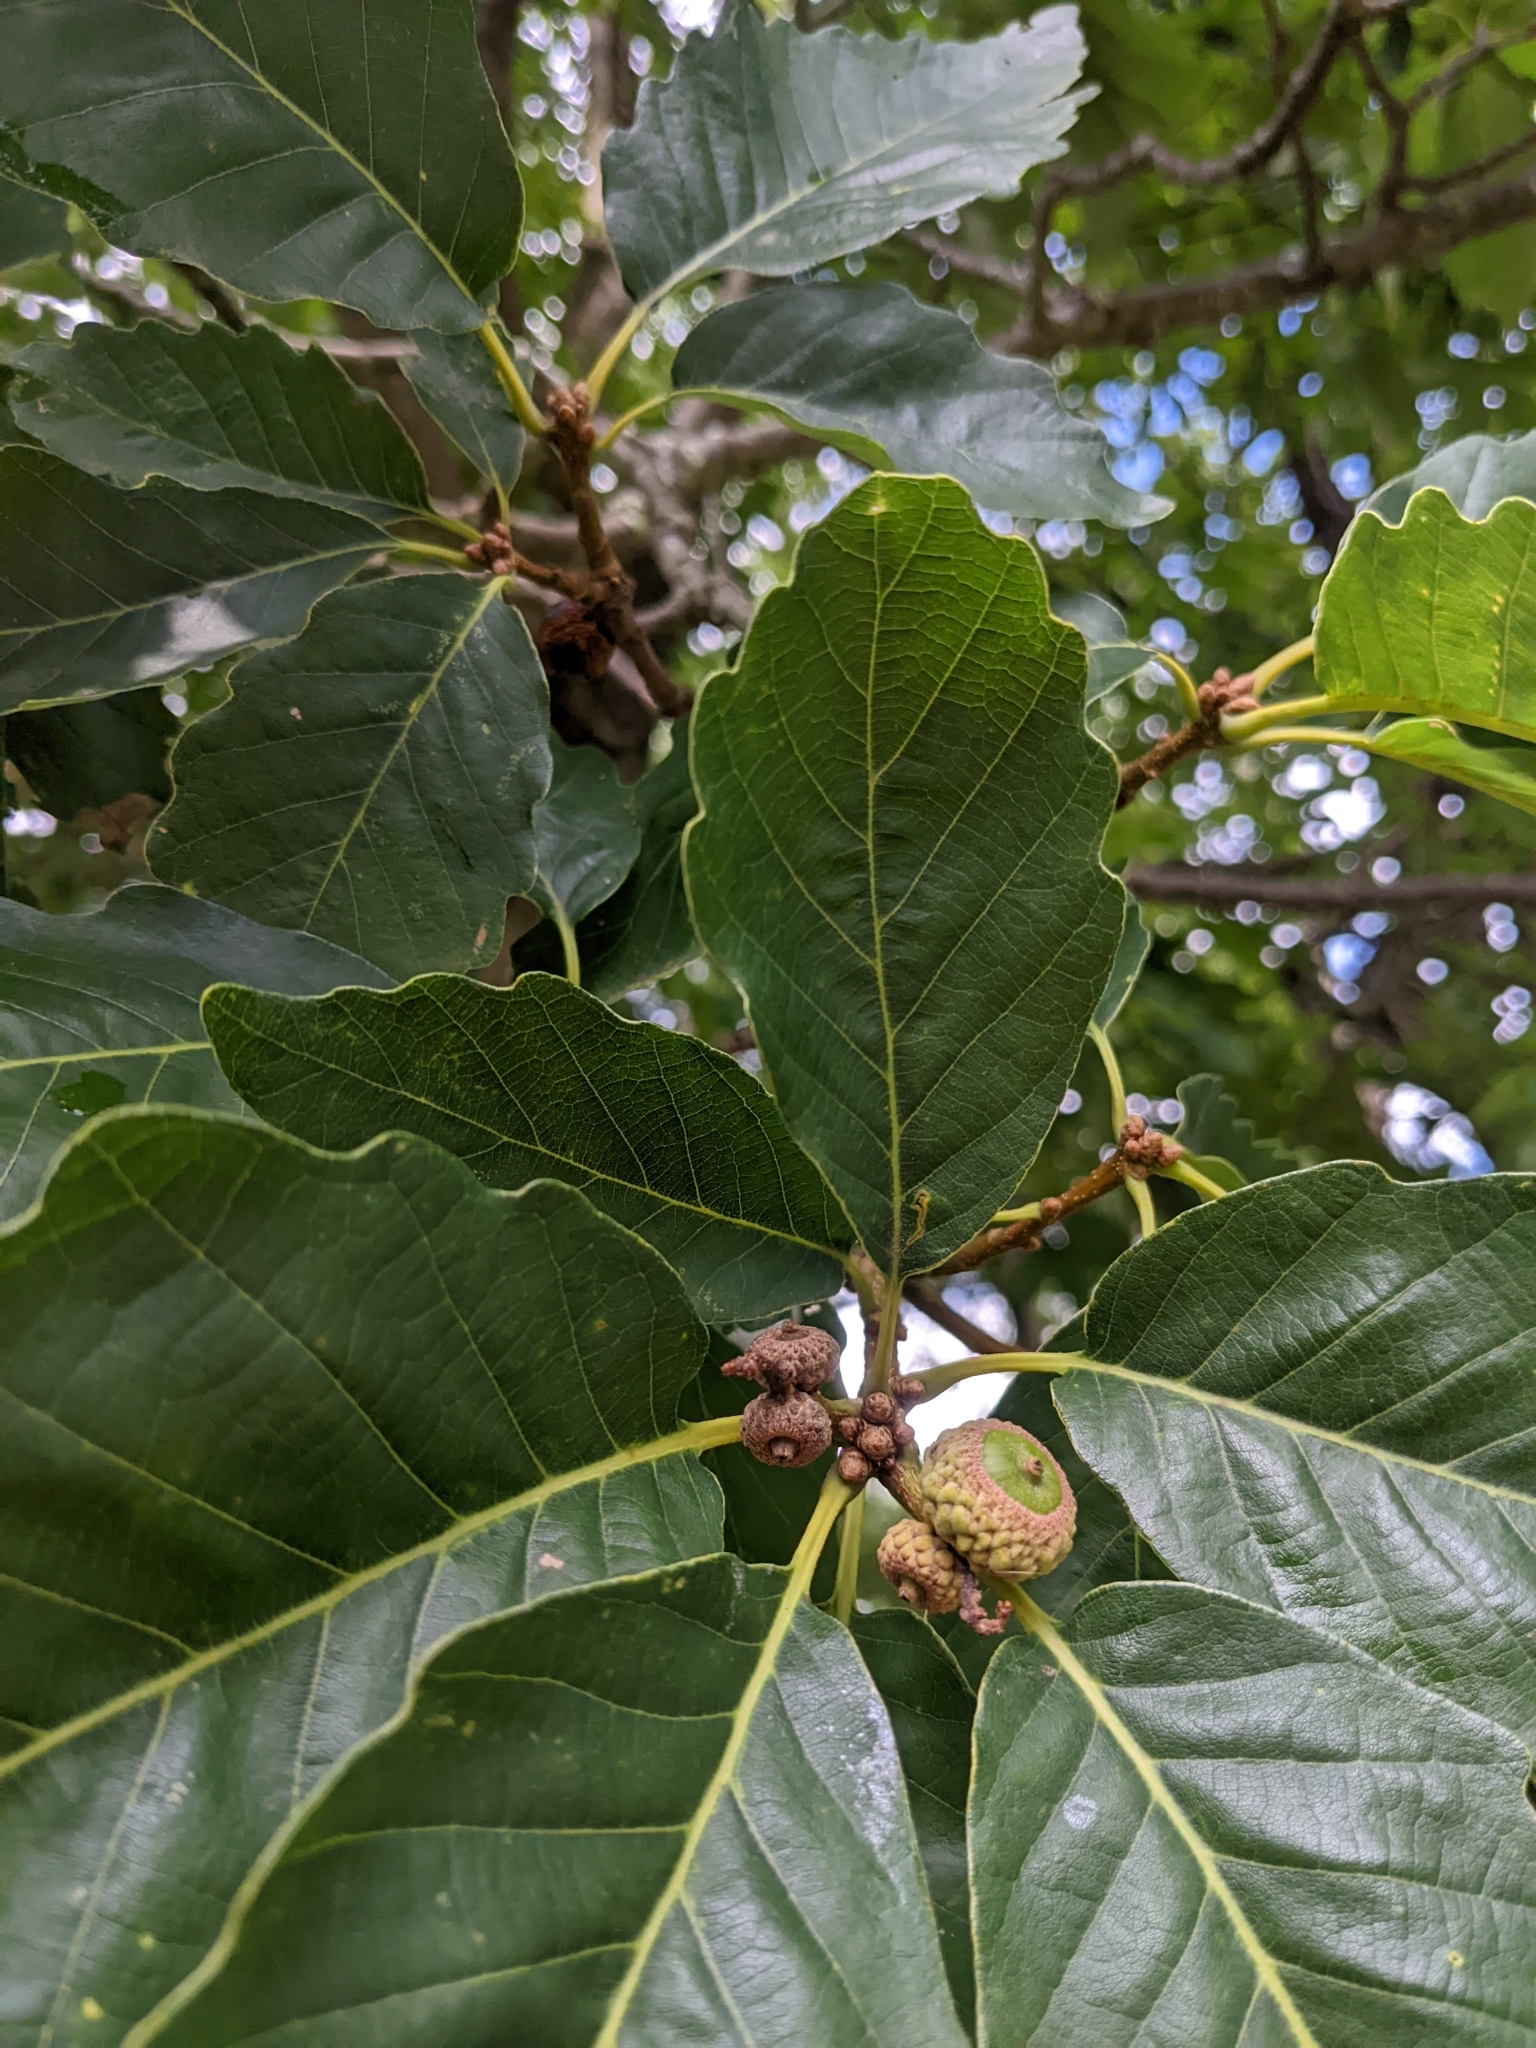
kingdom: Plantae
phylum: Tracheophyta
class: Magnoliopsida
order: Fagales
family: Fagaceae
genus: Quercus
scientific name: Quercus montana
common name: Chestnut oak
